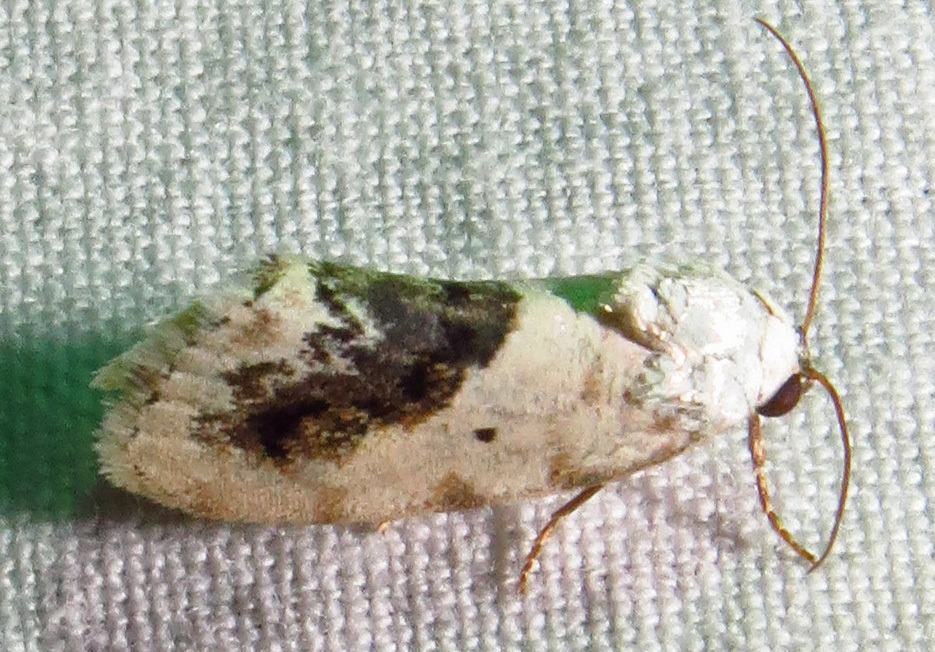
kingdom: Animalia
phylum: Arthropoda
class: Insecta
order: Lepidoptera
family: Noctuidae
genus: Acontia
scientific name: Acontia erastrioides
